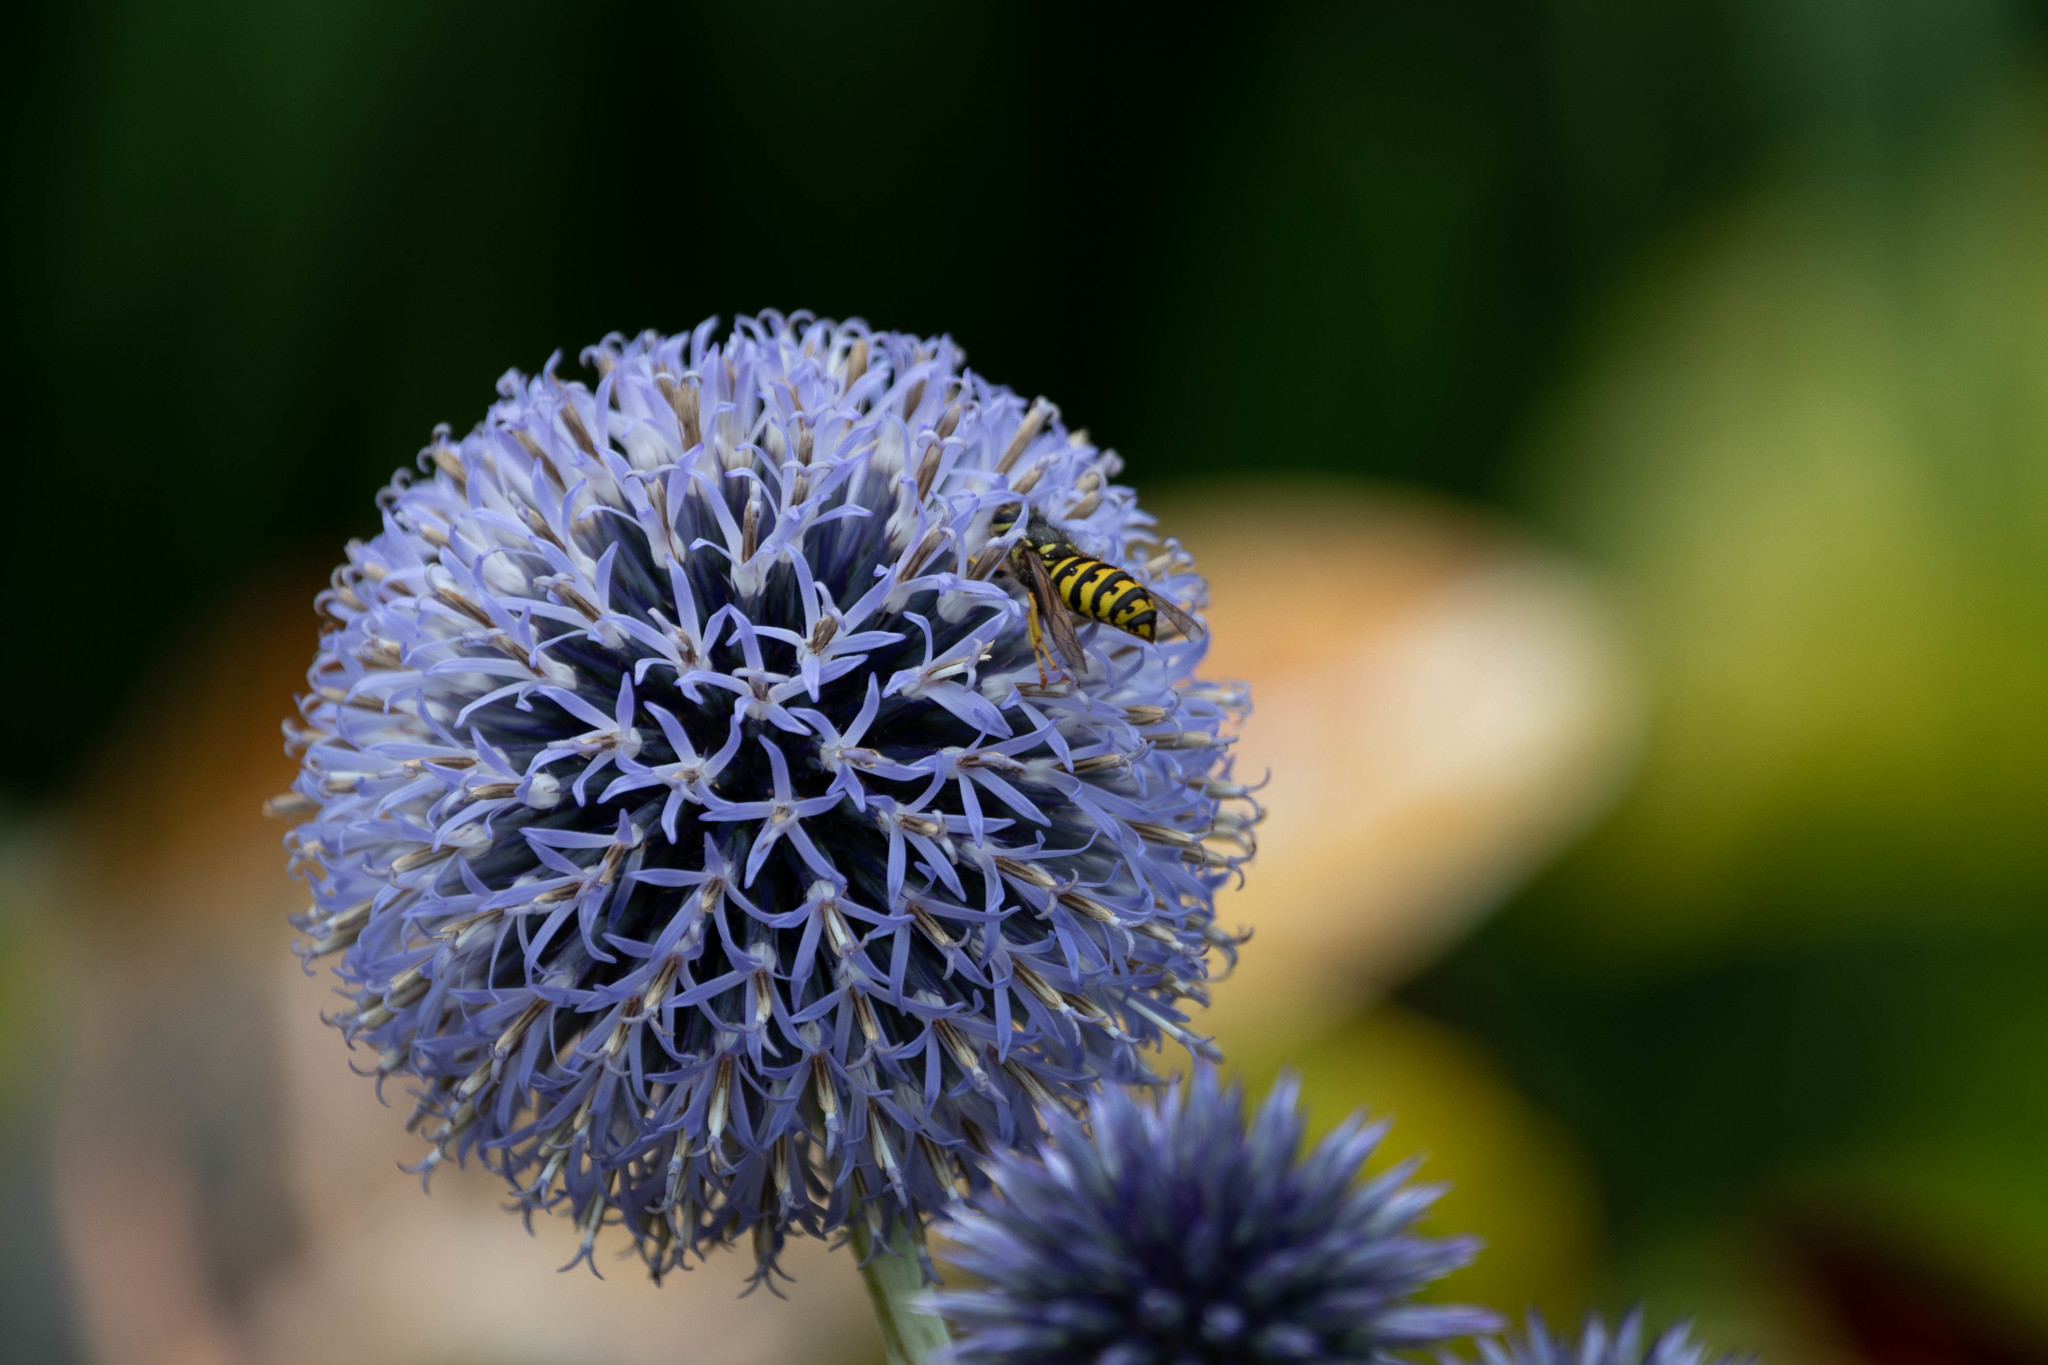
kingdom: Animalia
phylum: Arthropoda
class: Insecta
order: Hymenoptera
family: Vespidae
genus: Dolichovespula
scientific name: Dolichovespula arenaria
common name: Aerial yellowjacket
